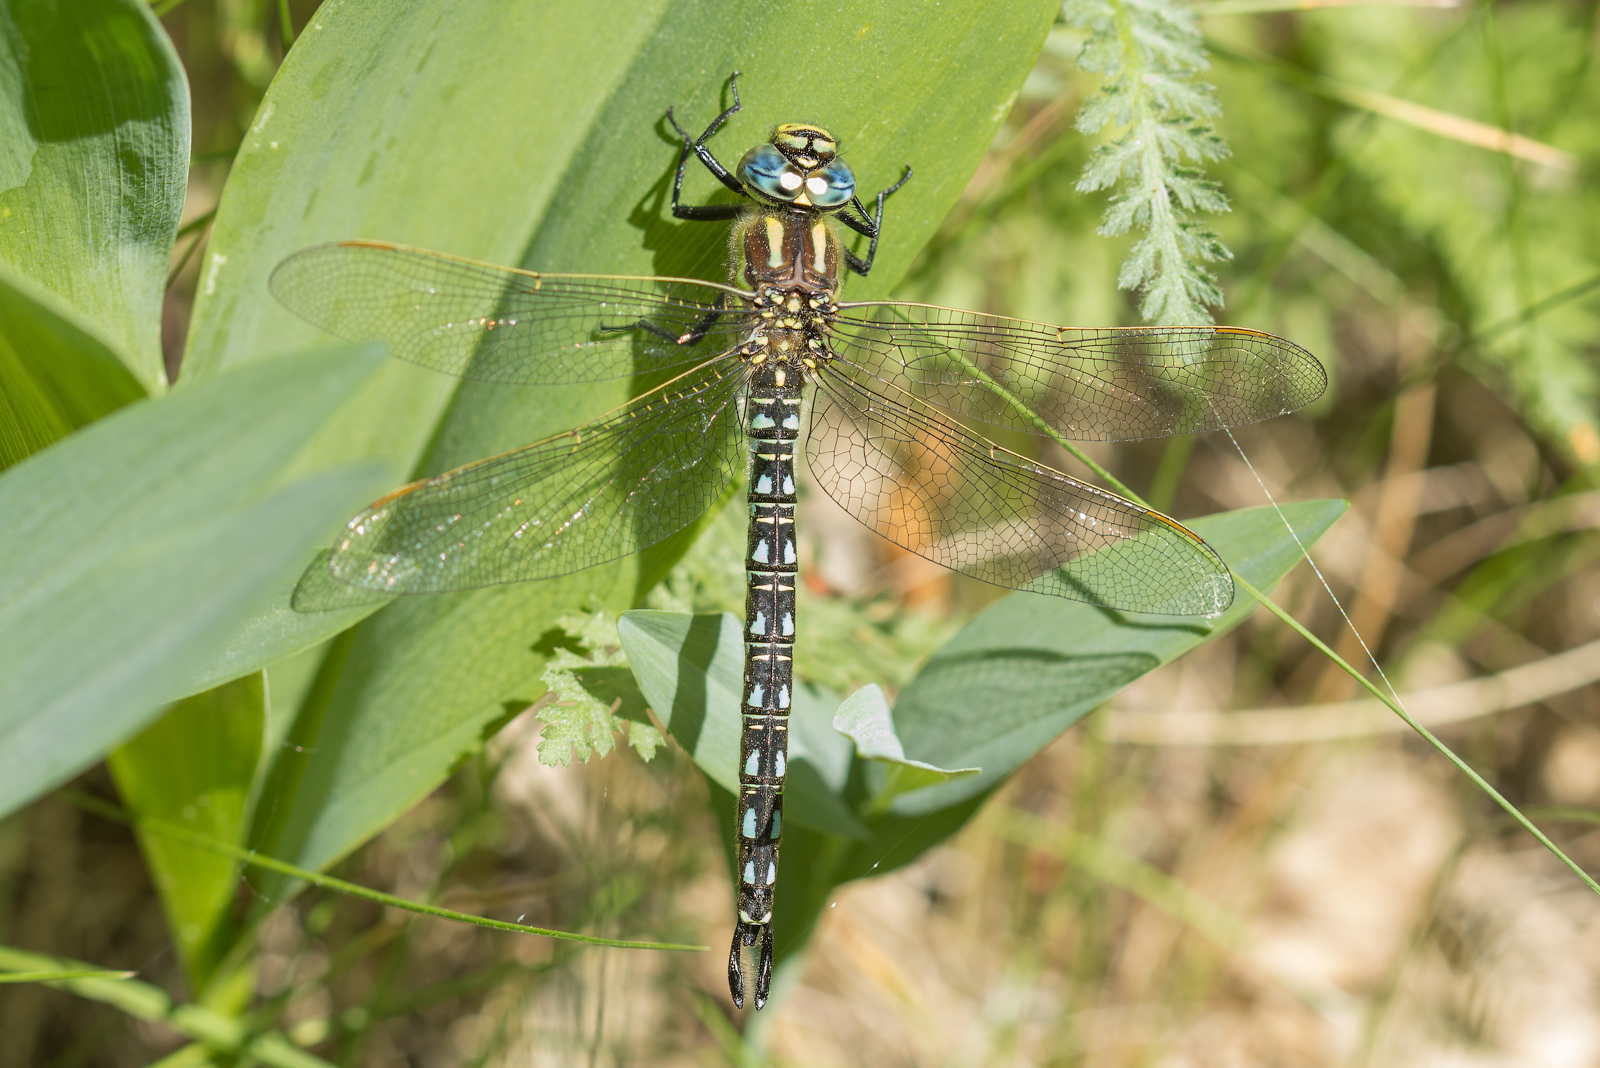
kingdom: Animalia
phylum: Arthropoda
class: Insecta
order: Odonata
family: Aeshnidae
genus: Brachytron
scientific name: Brachytron pratense
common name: Hairy hawker
